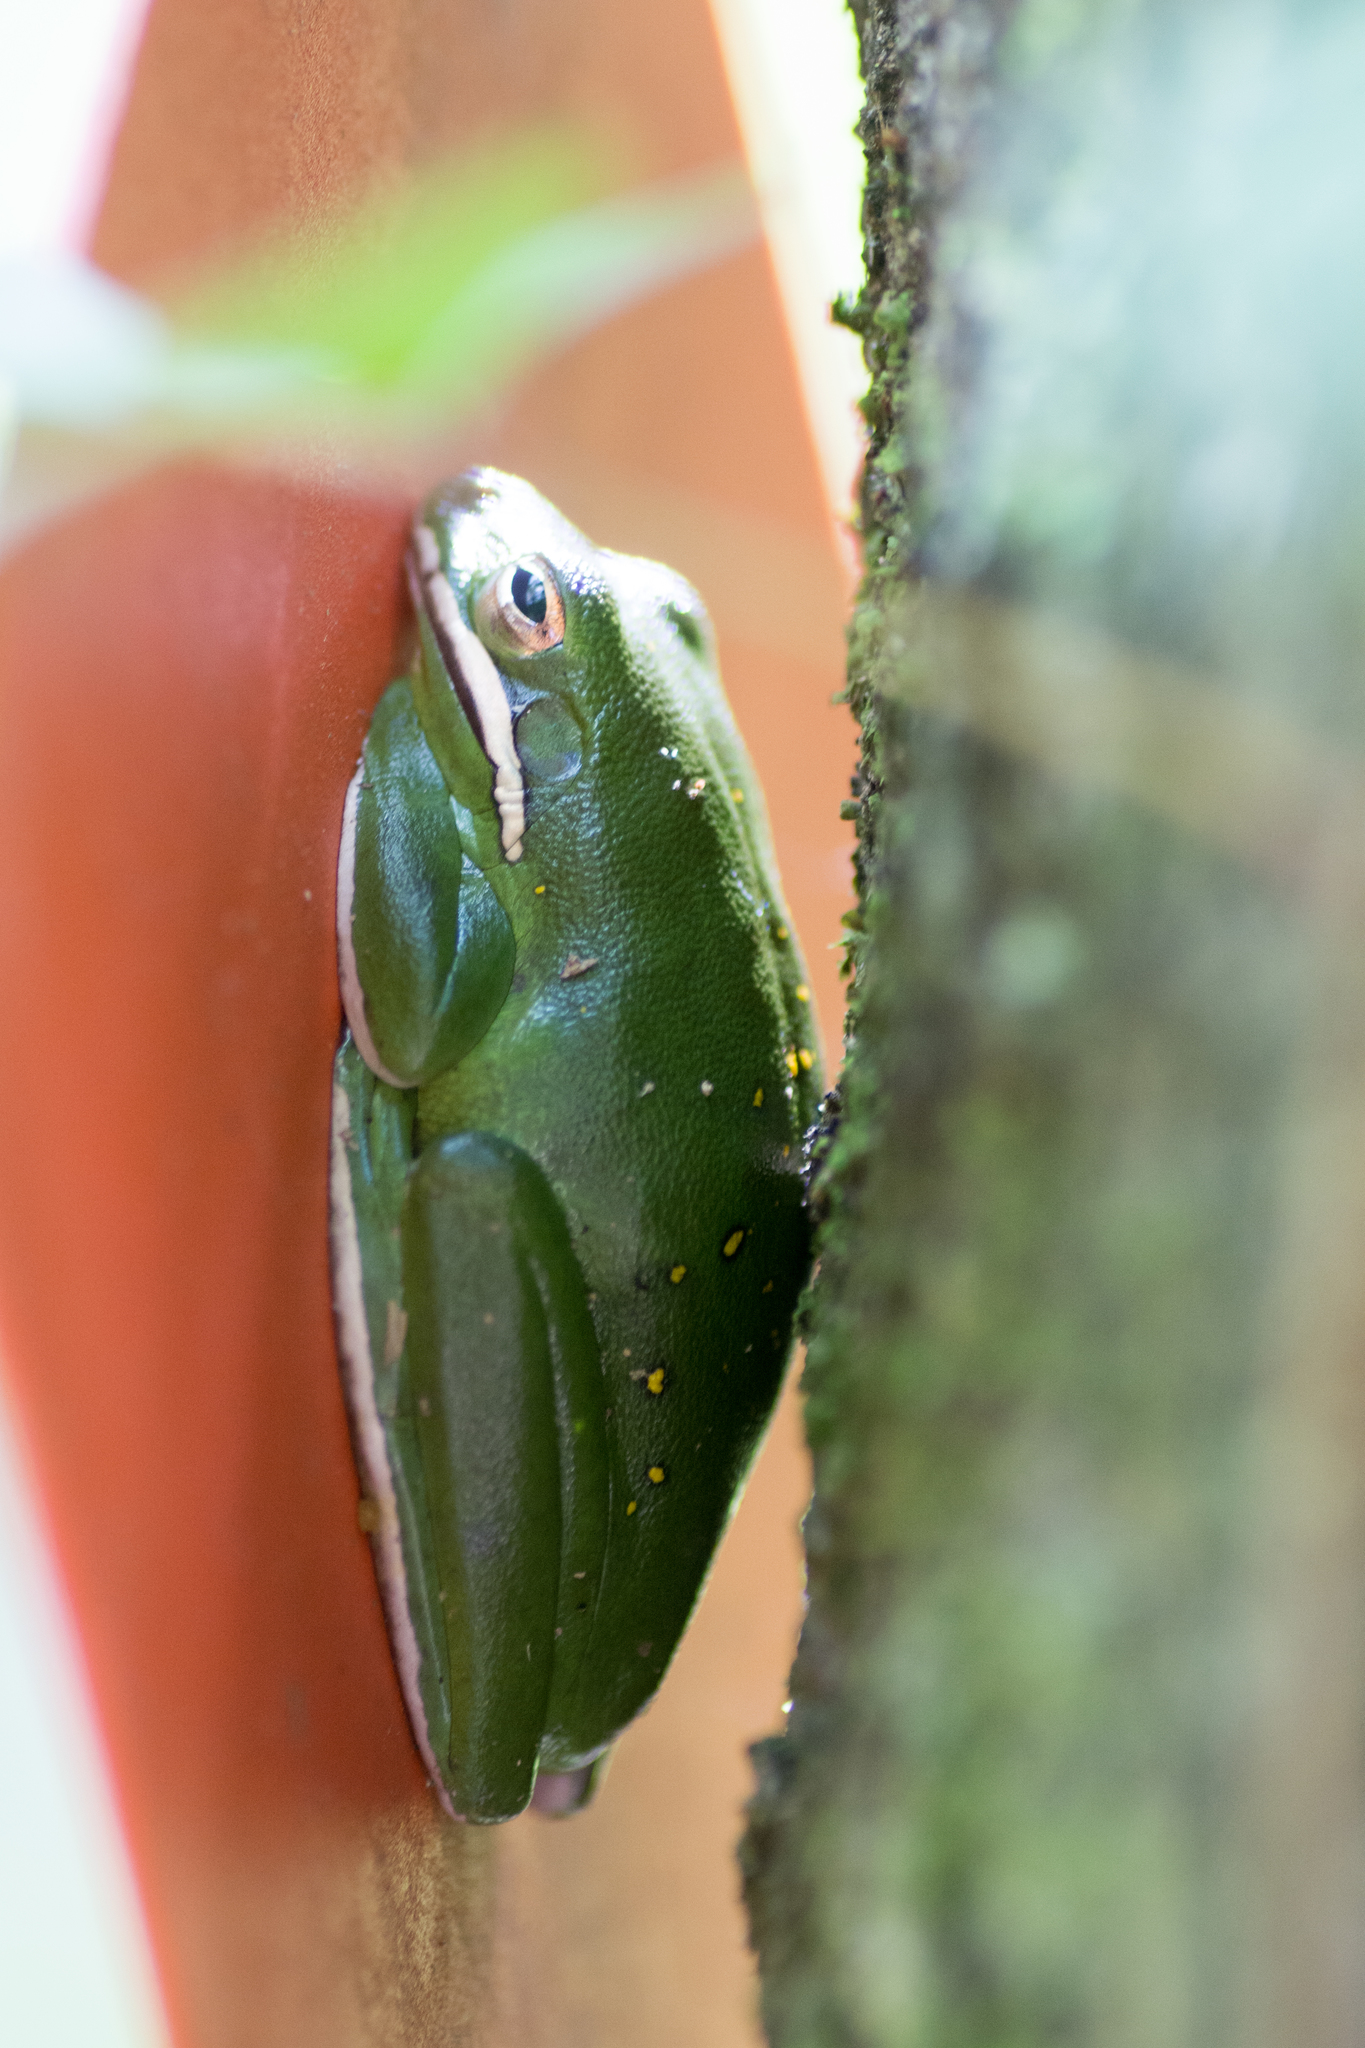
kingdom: Animalia
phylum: Chordata
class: Amphibia
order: Anura
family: Hylidae
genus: Dryophytes
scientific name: Dryophytes cinereus
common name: Green treefrog
